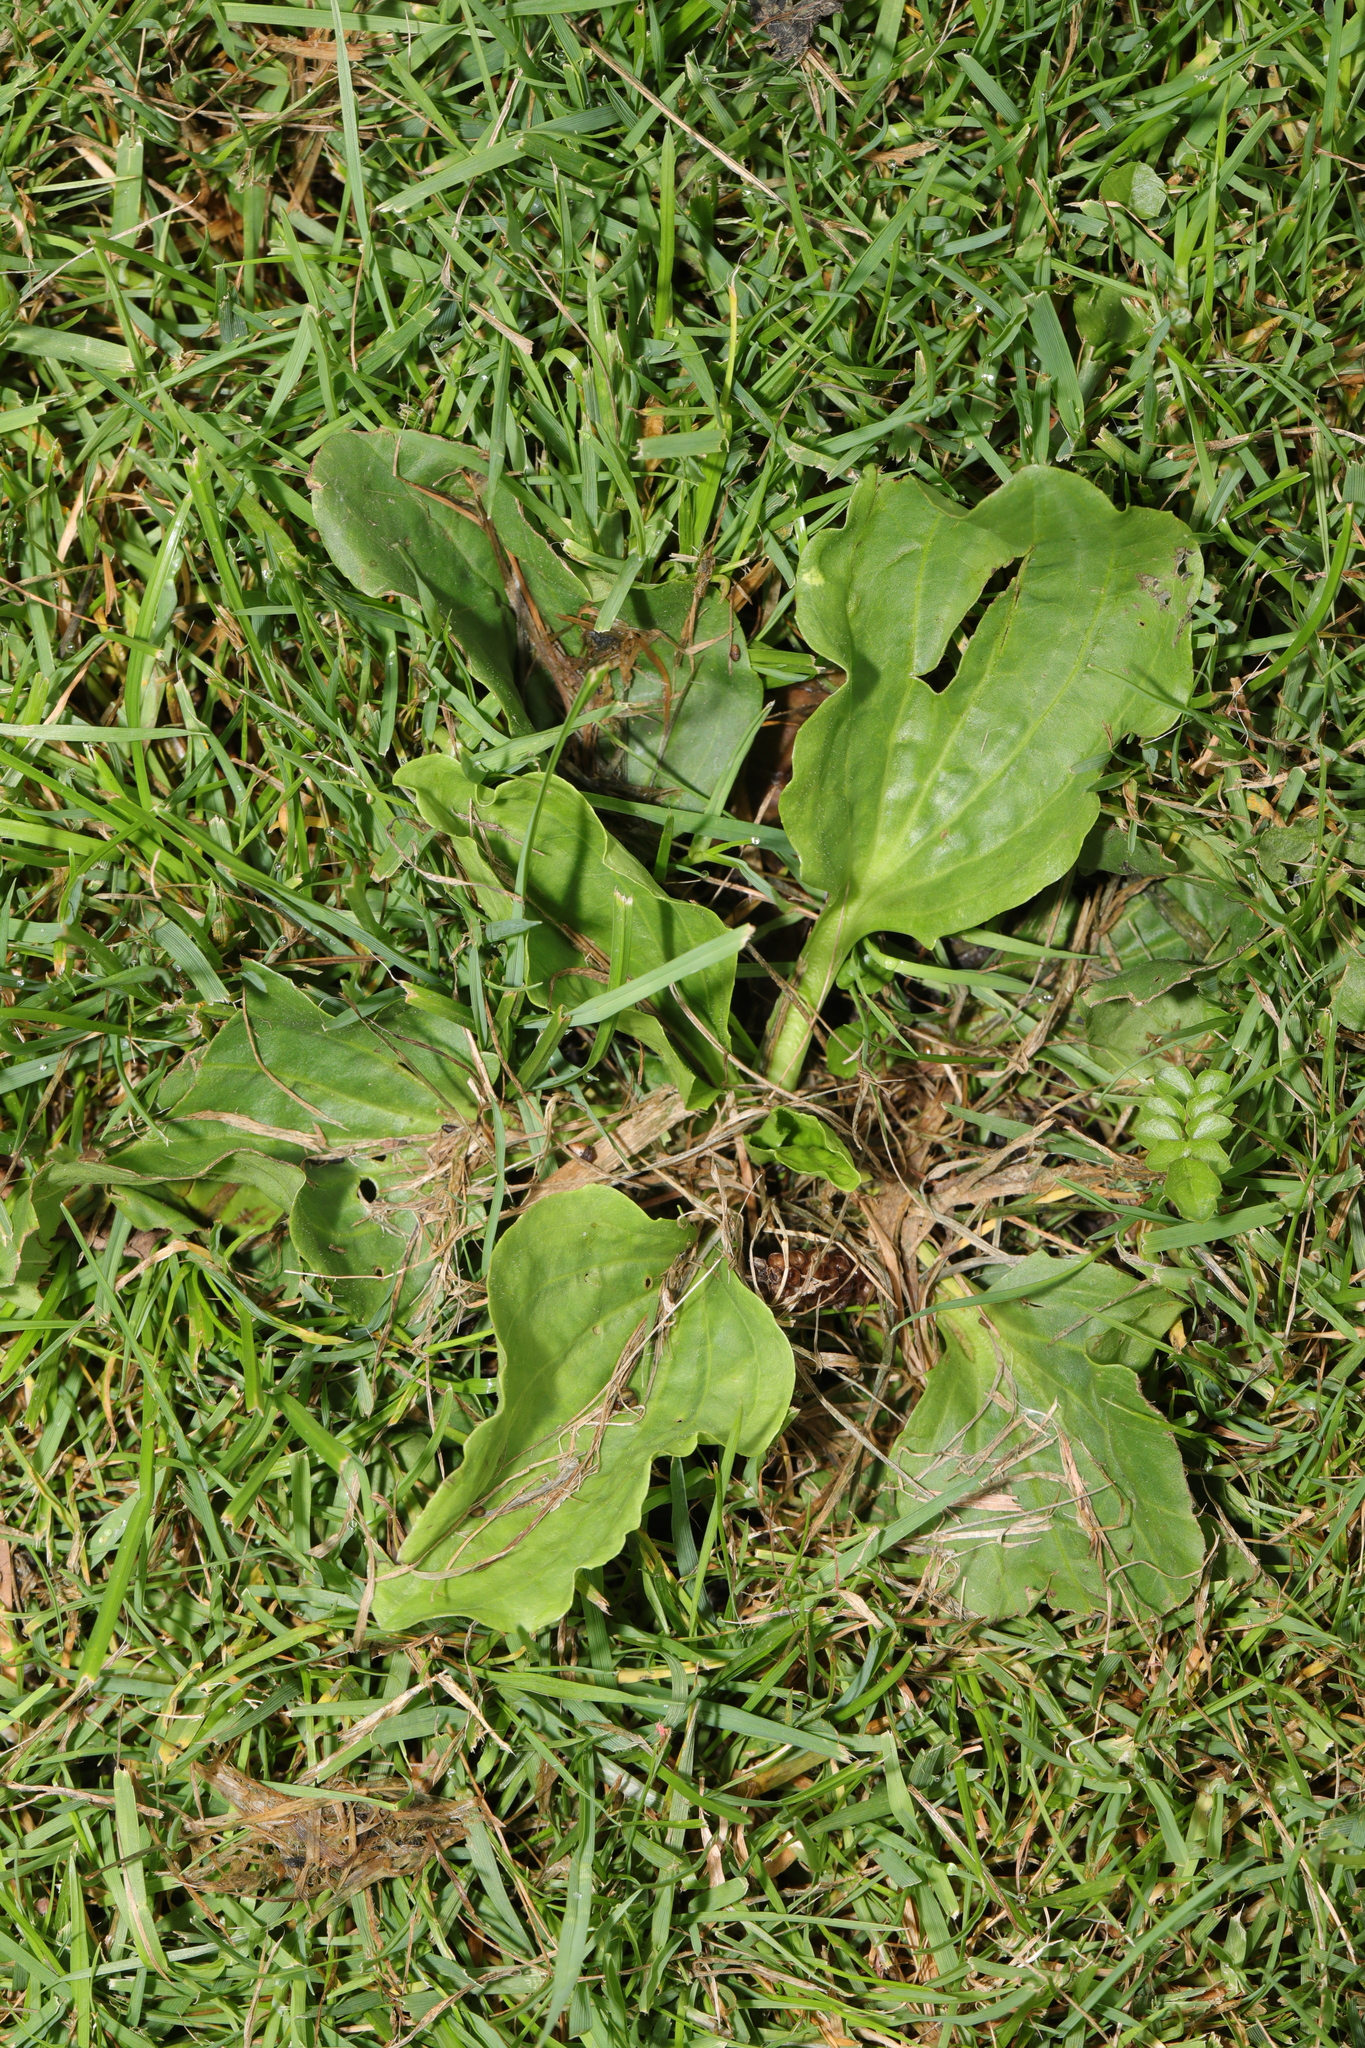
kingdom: Plantae
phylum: Tracheophyta
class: Magnoliopsida
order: Lamiales
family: Plantaginaceae
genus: Plantago
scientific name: Plantago major
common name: Common plantain
